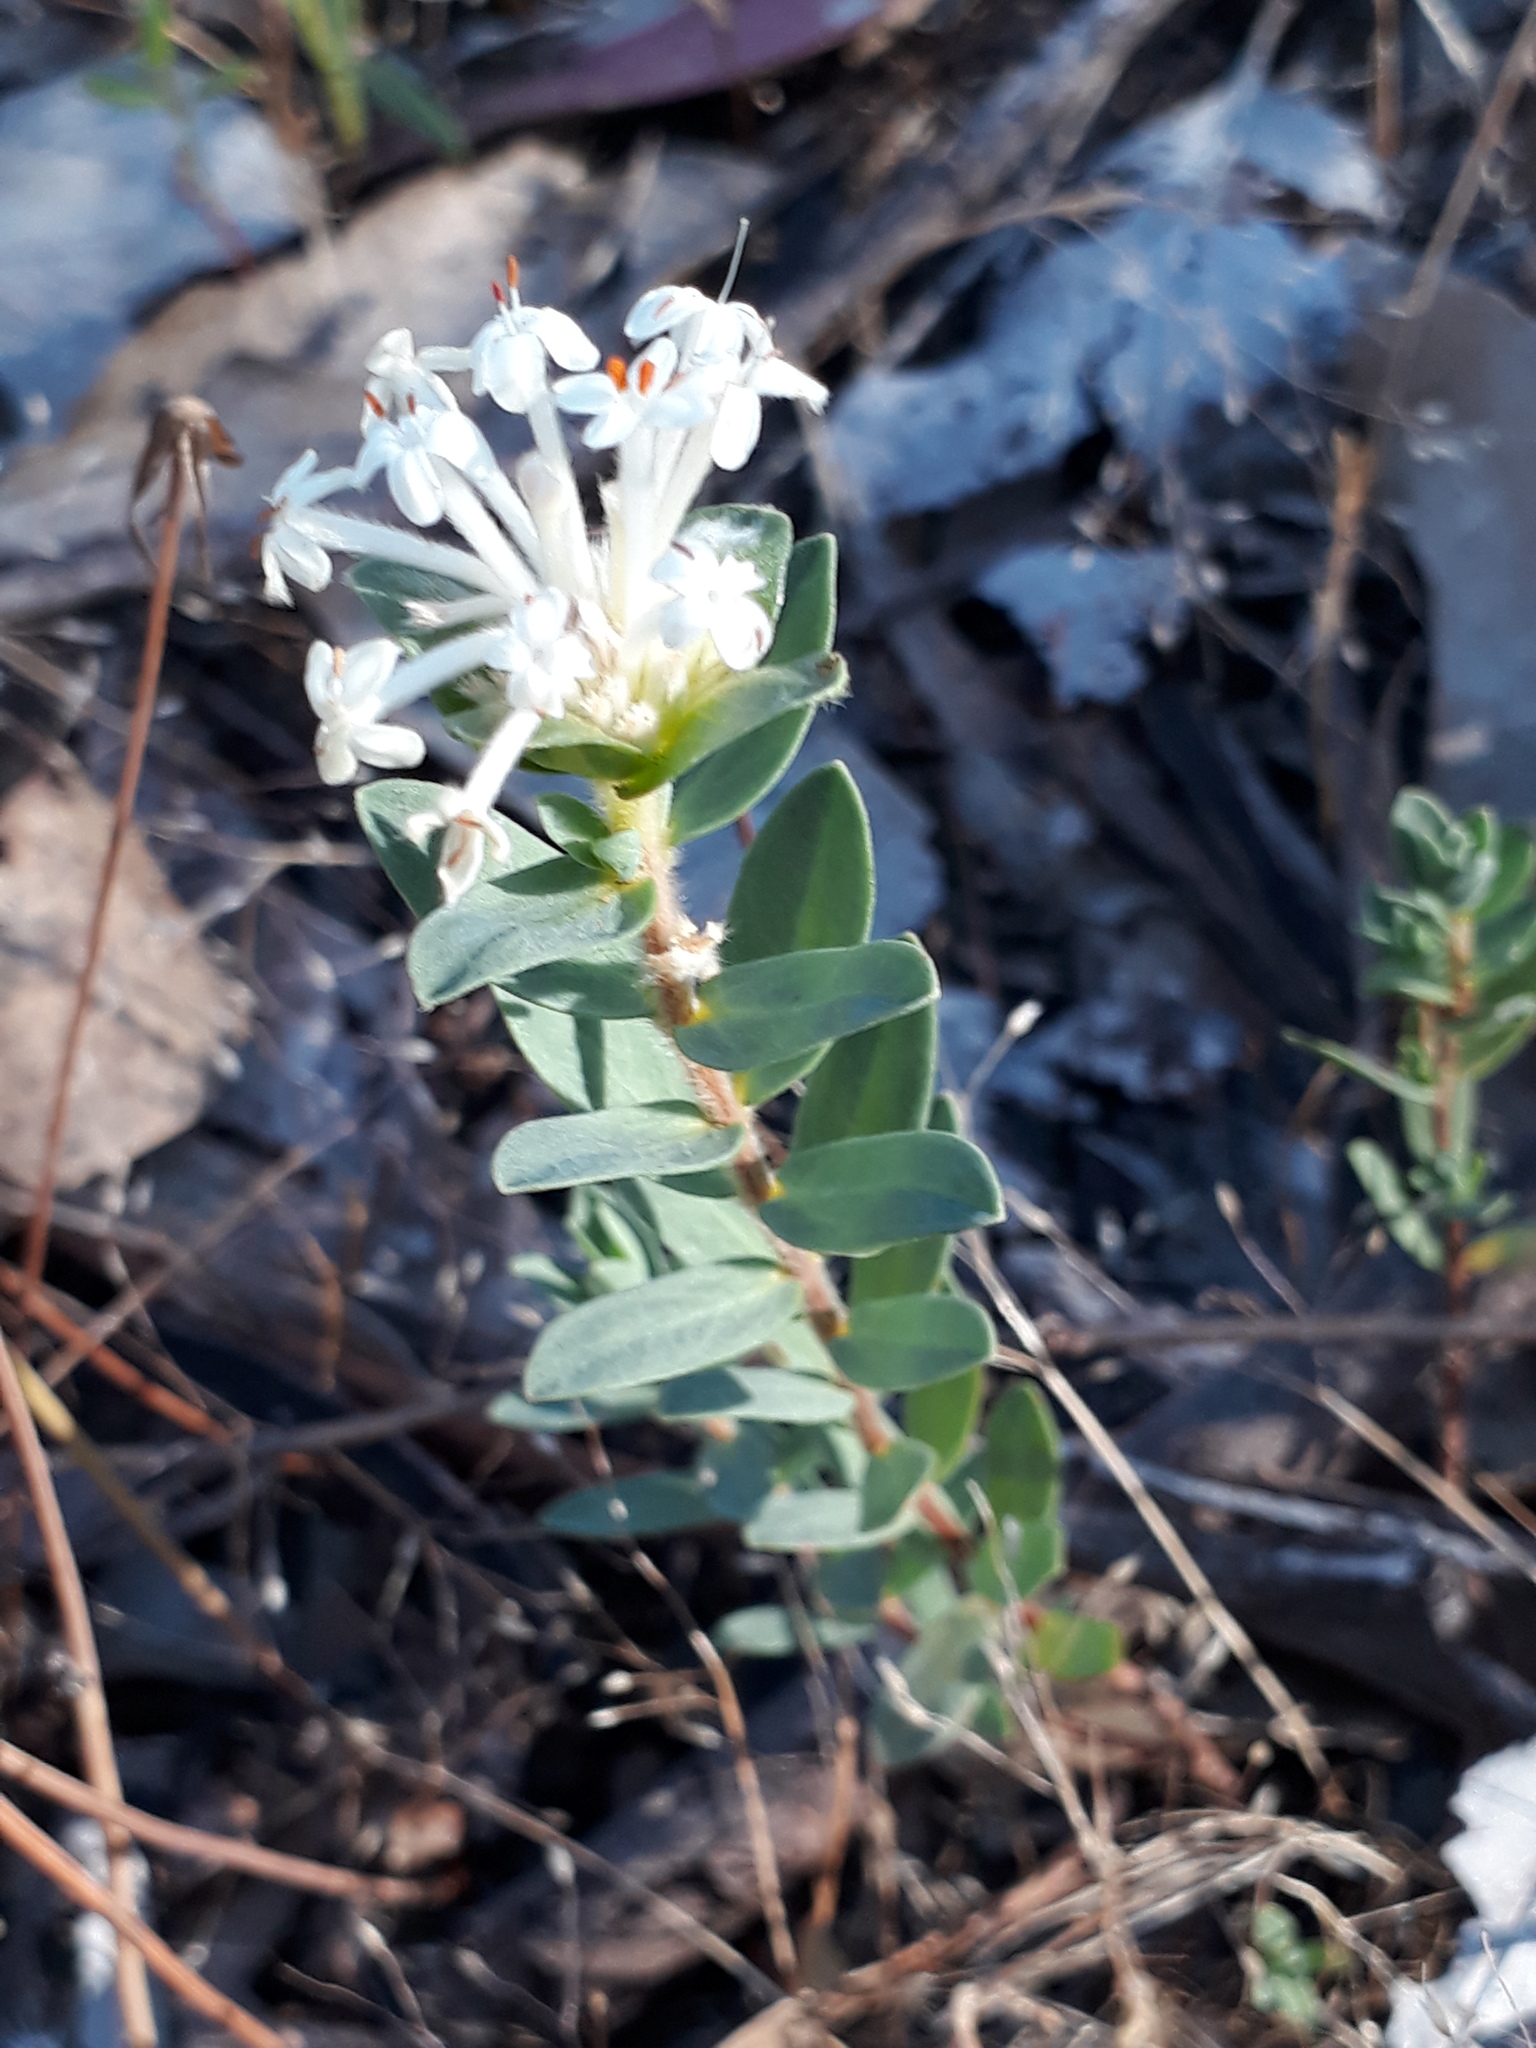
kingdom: Plantae
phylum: Tracheophyta
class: Magnoliopsida
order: Malvales
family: Thymelaeaceae
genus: Pimelea
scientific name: Pimelea humilis
